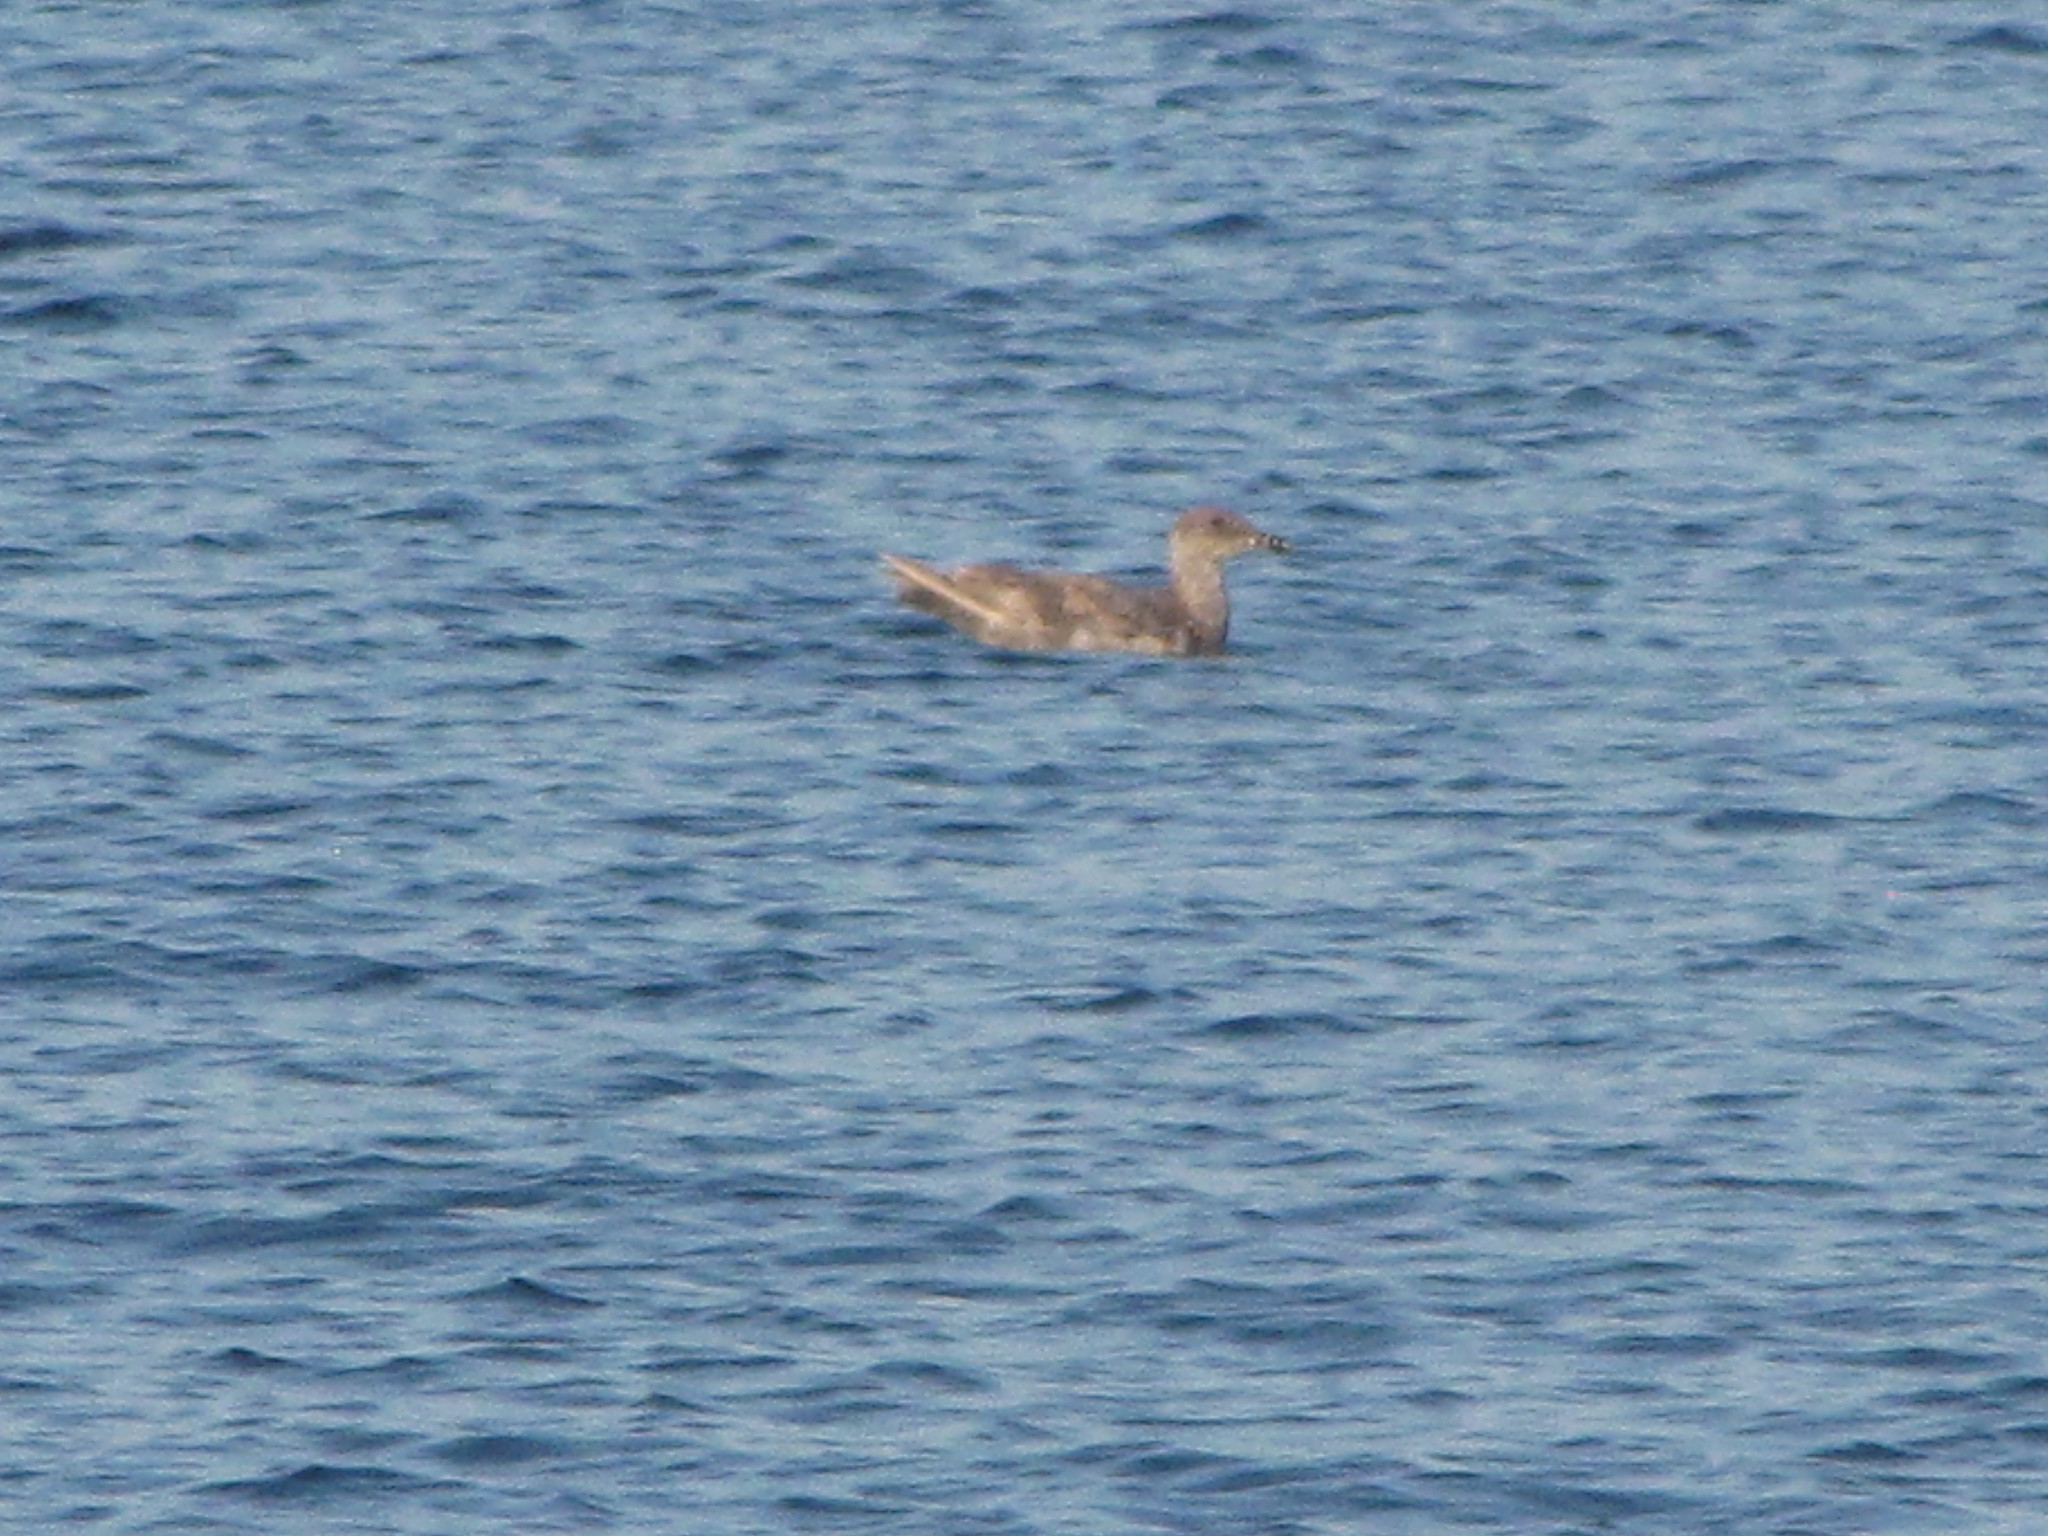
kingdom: Animalia
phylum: Chordata
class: Aves
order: Charadriiformes
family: Laridae
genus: Larus
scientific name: Larus
